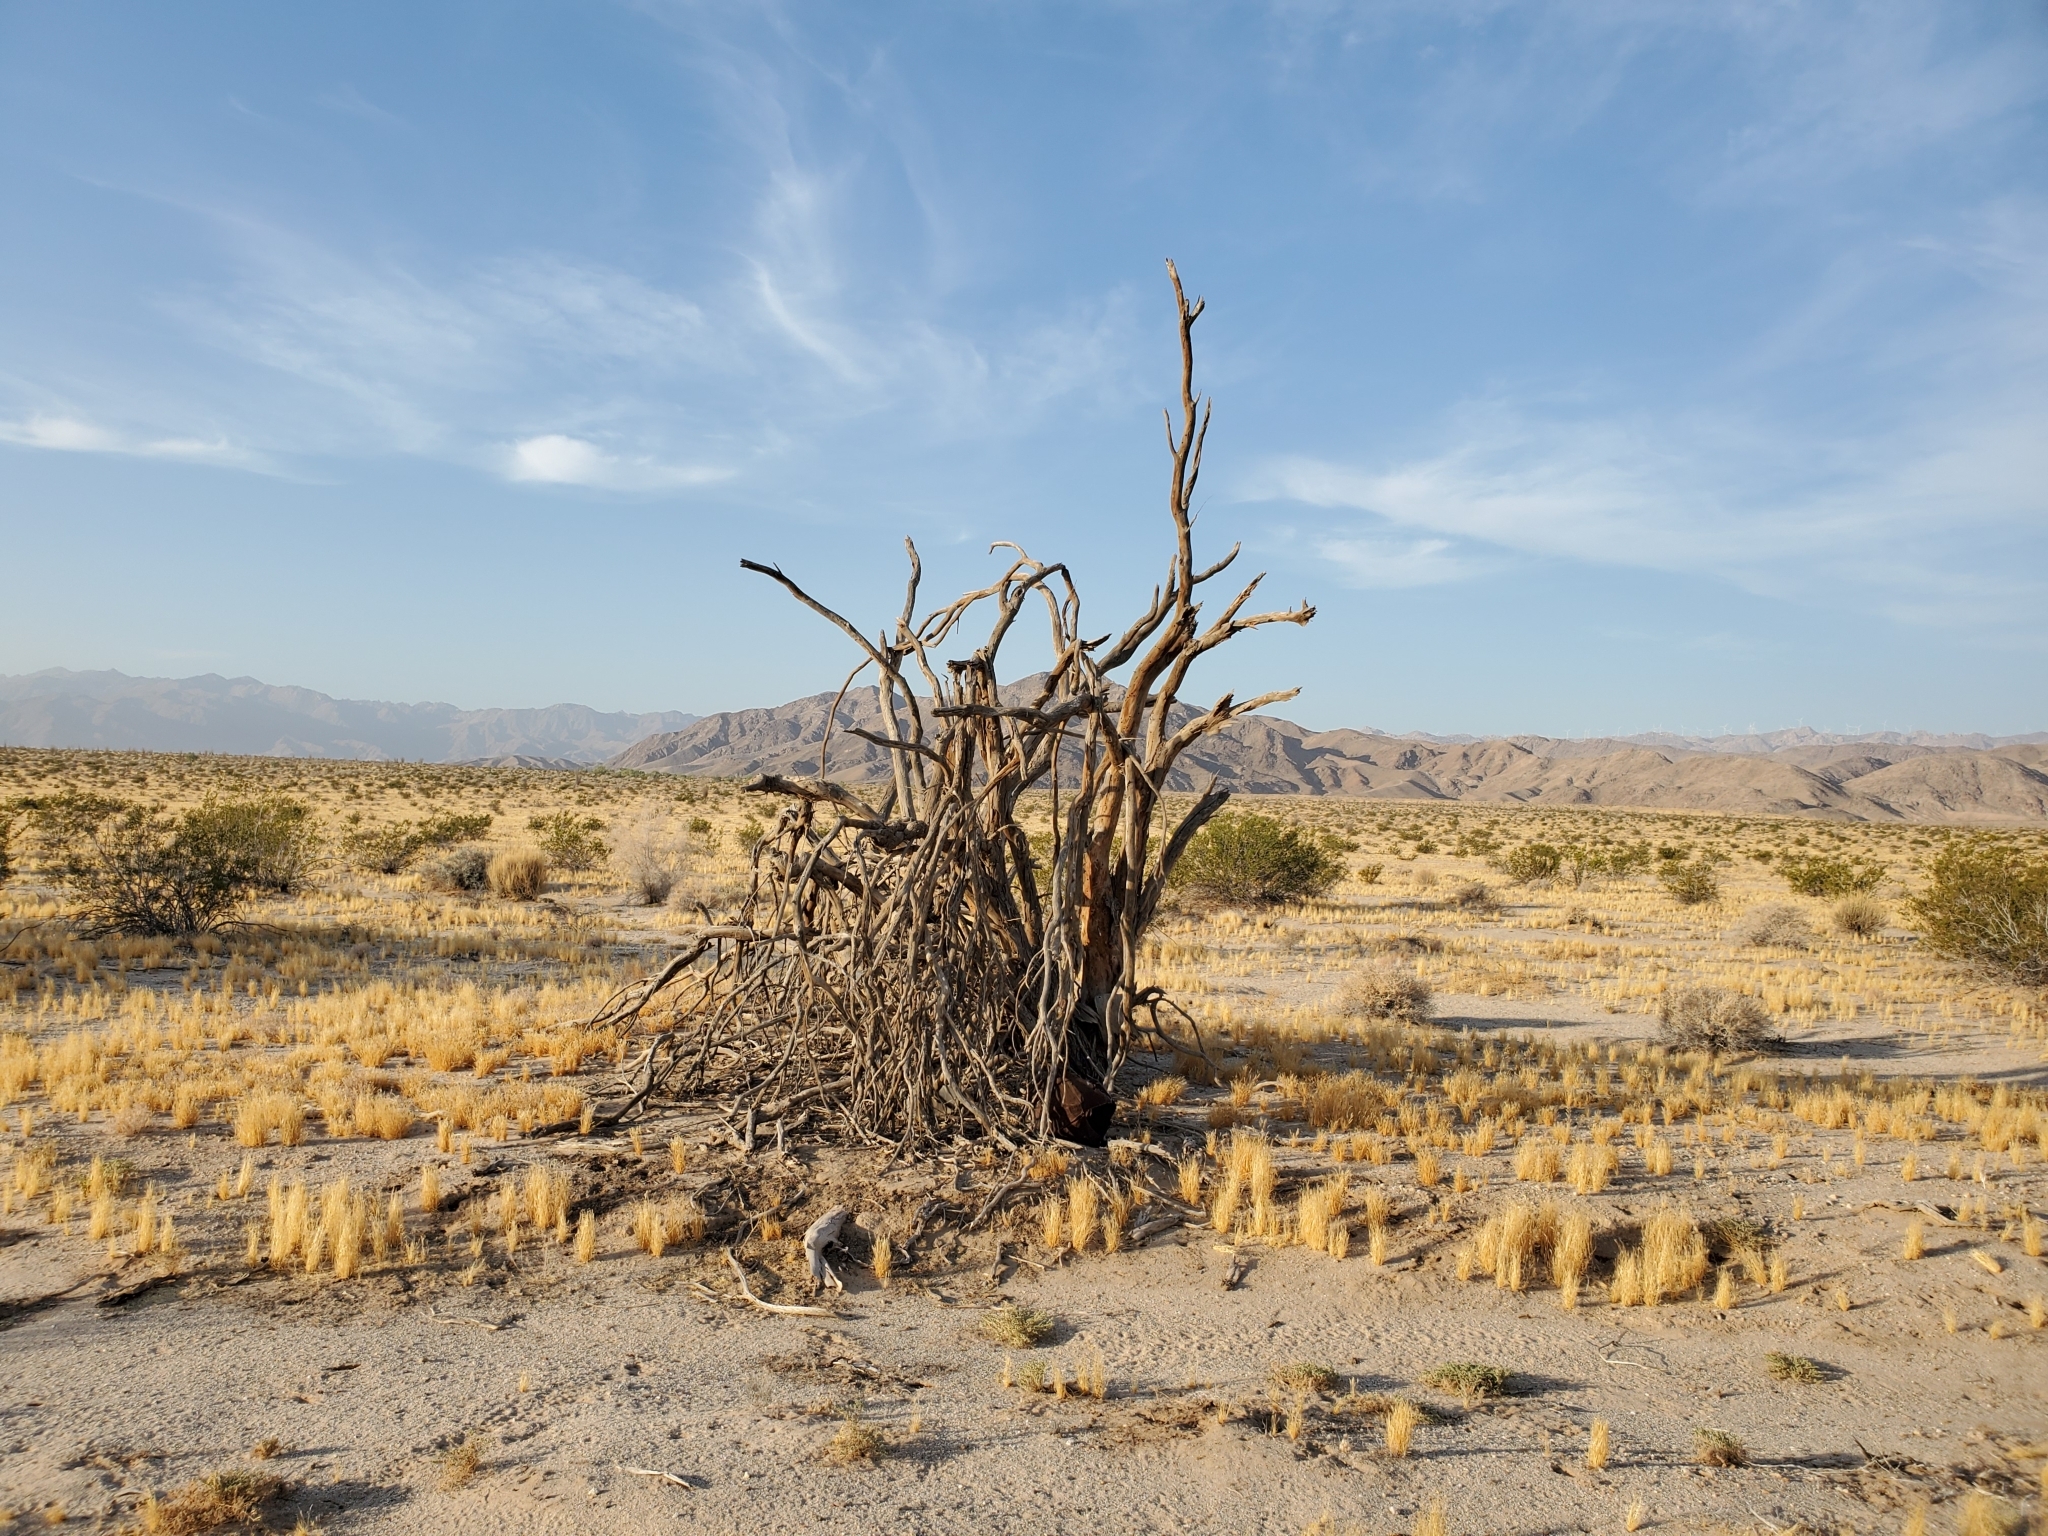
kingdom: Plantae
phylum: Tracheophyta
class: Magnoliopsida
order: Fabales
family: Fabaceae
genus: Olneya
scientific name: Olneya tesota
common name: Desert ironwood
